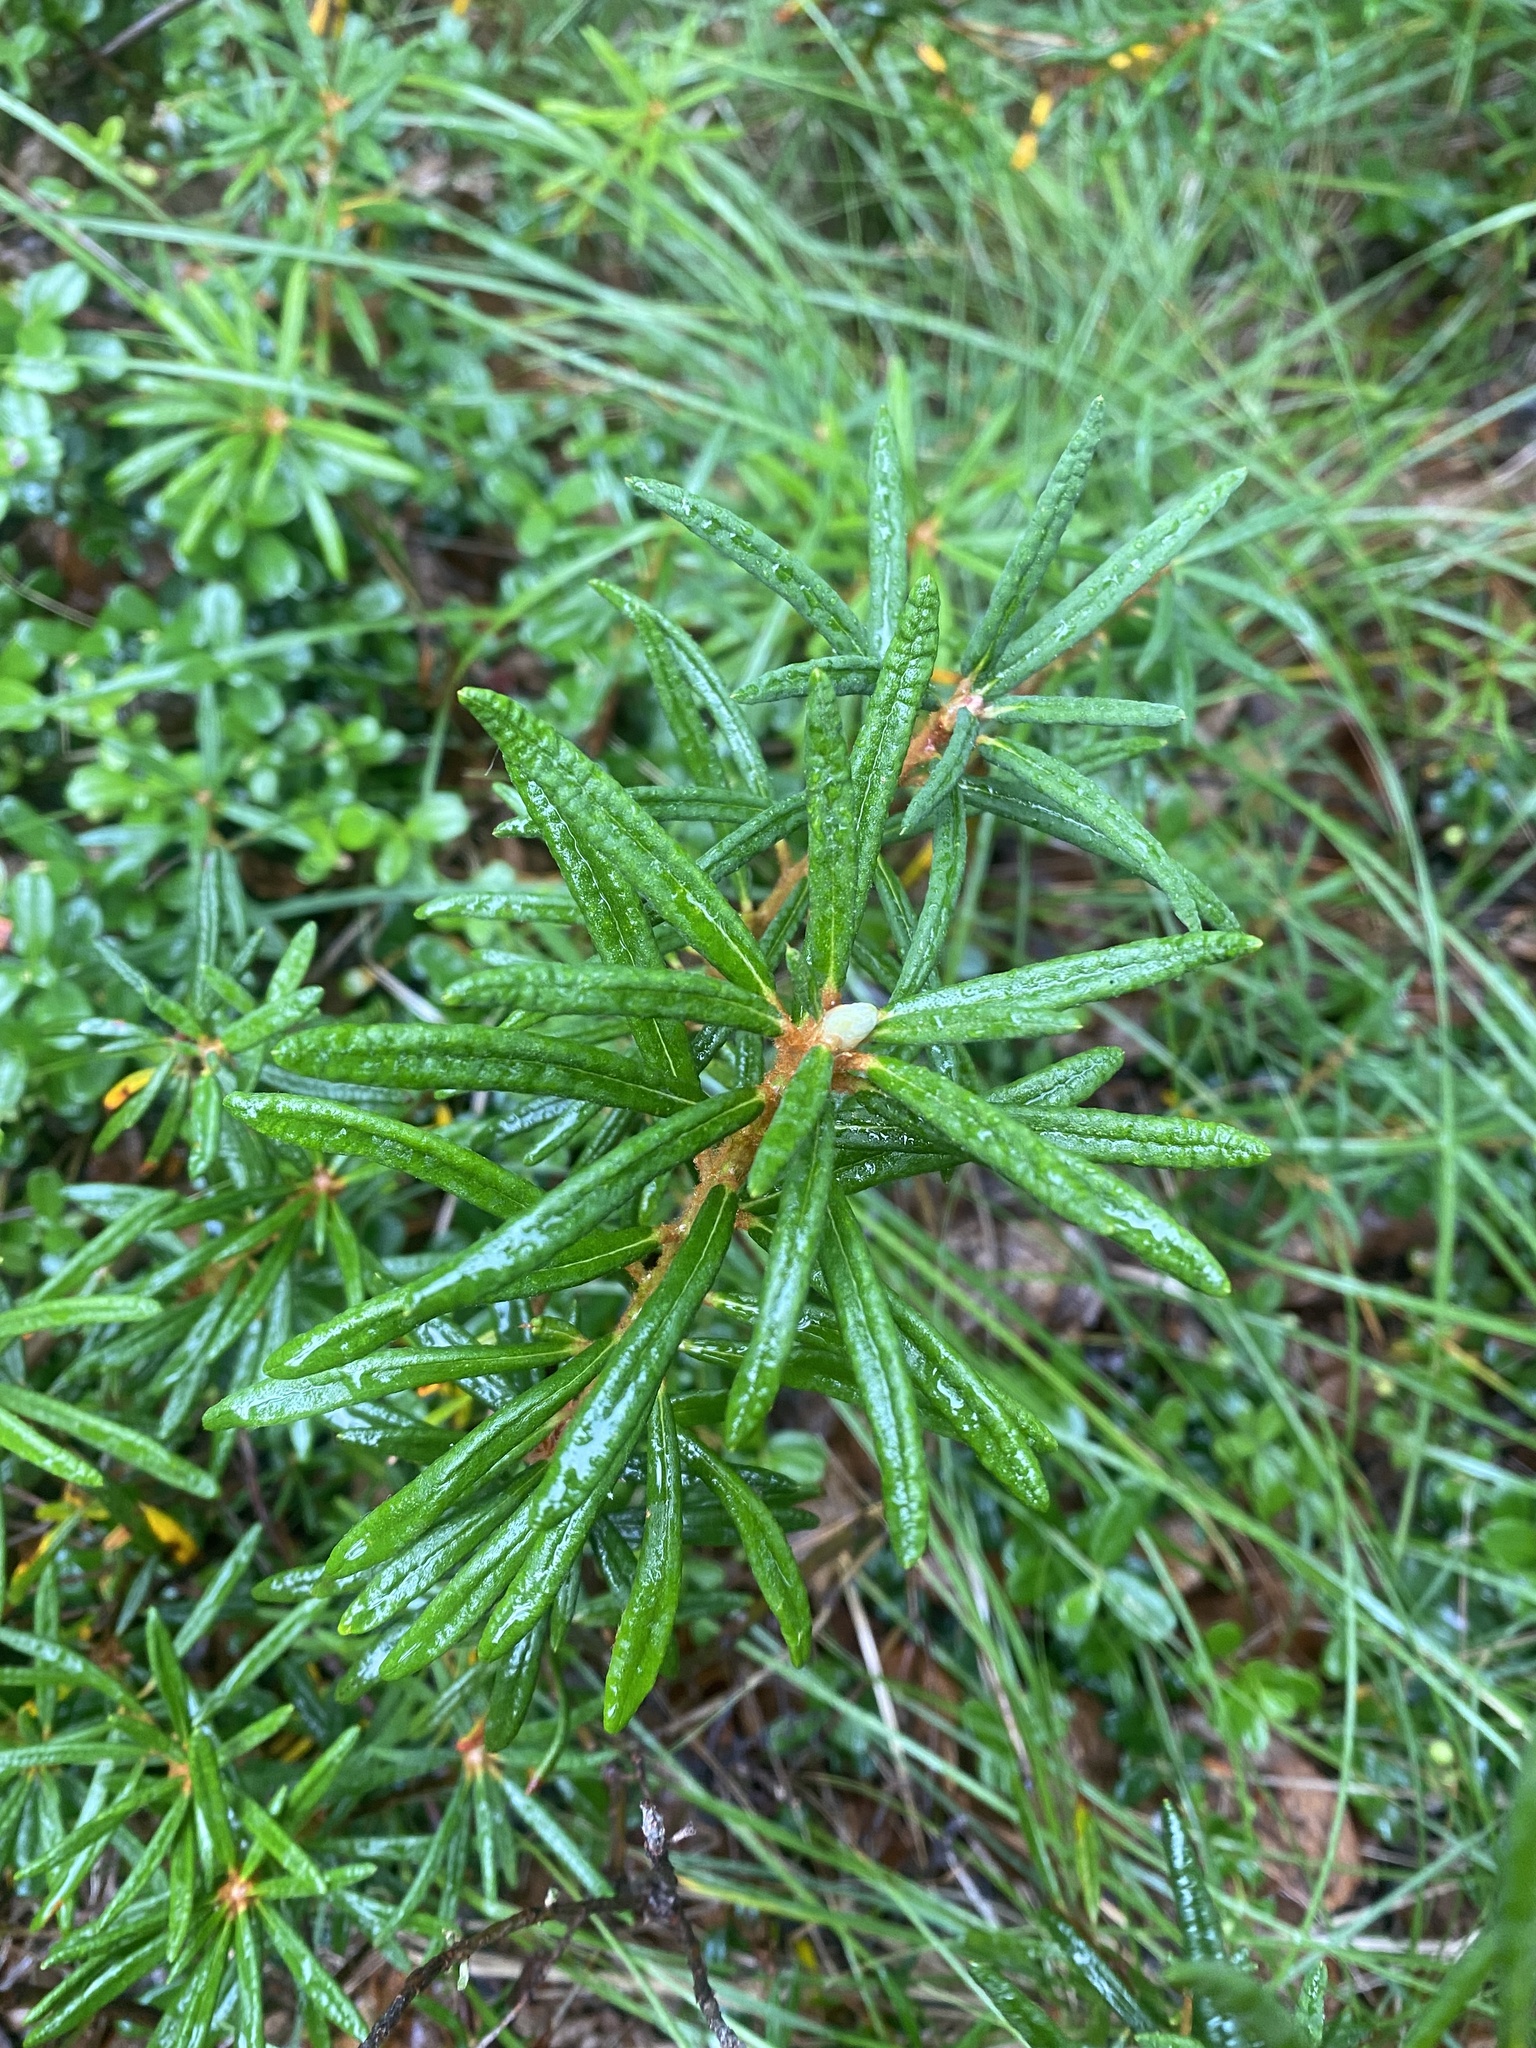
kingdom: Plantae
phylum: Tracheophyta
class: Magnoliopsida
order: Ericales
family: Ericaceae
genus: Rhododendron
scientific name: Rhododendron tomentosum
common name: Marsh labrador tea
